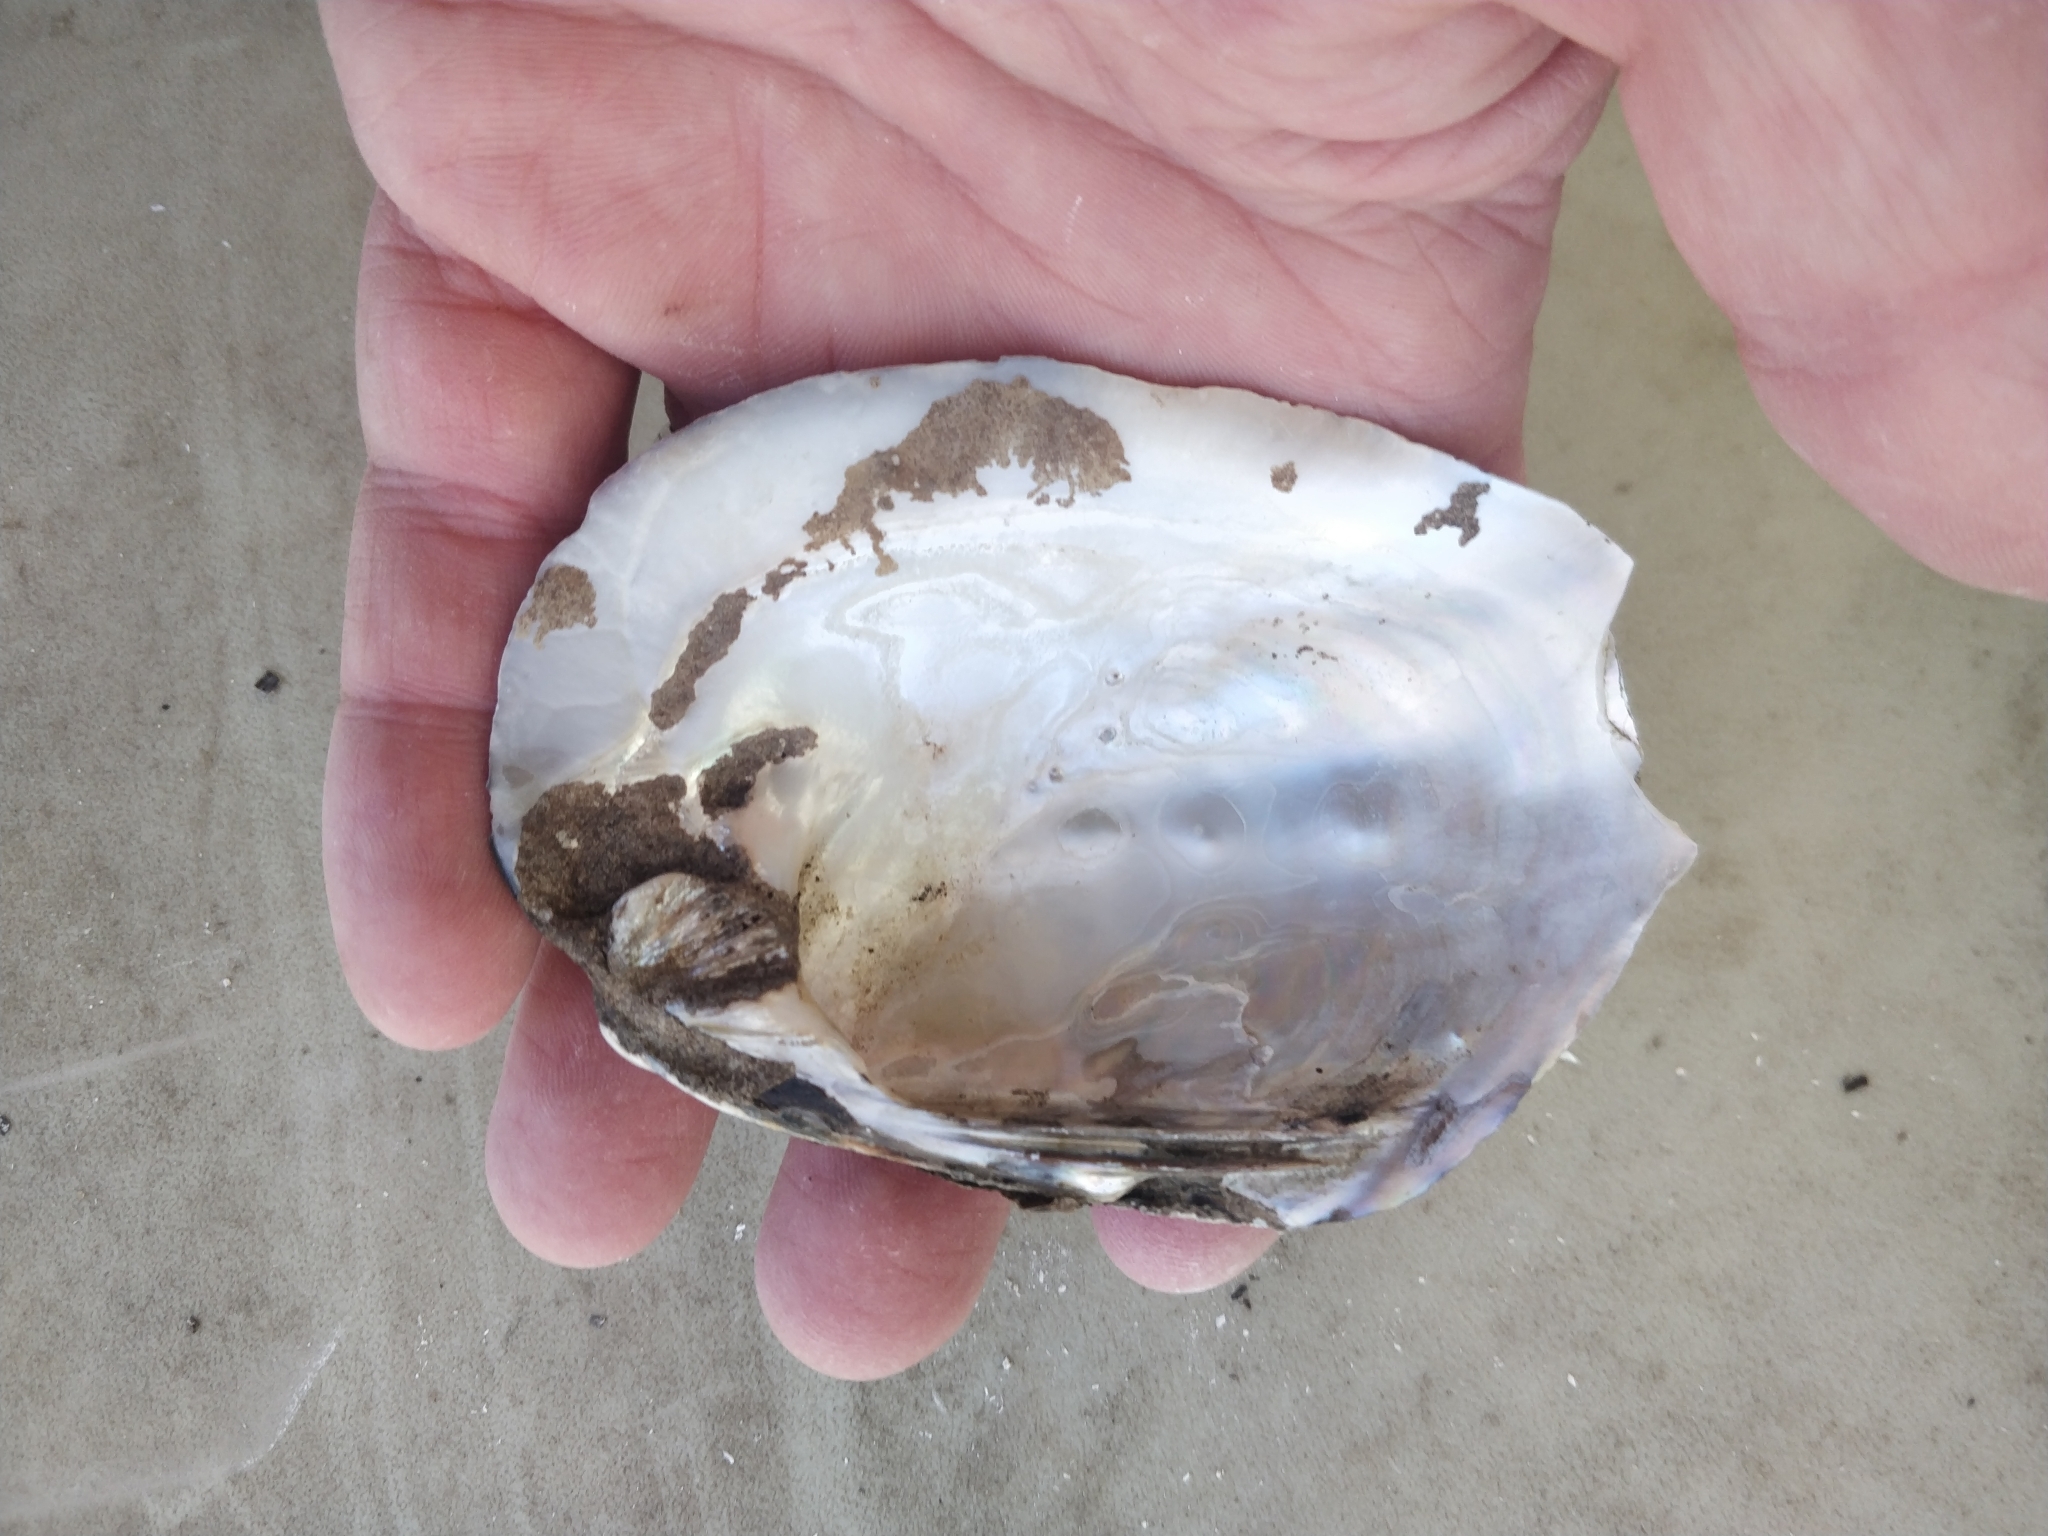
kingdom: Animalia
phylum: Mollusca
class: Bivalvia
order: Unionida
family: Unionidae
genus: Amblema
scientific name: Amblema plicata
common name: Threeridge
